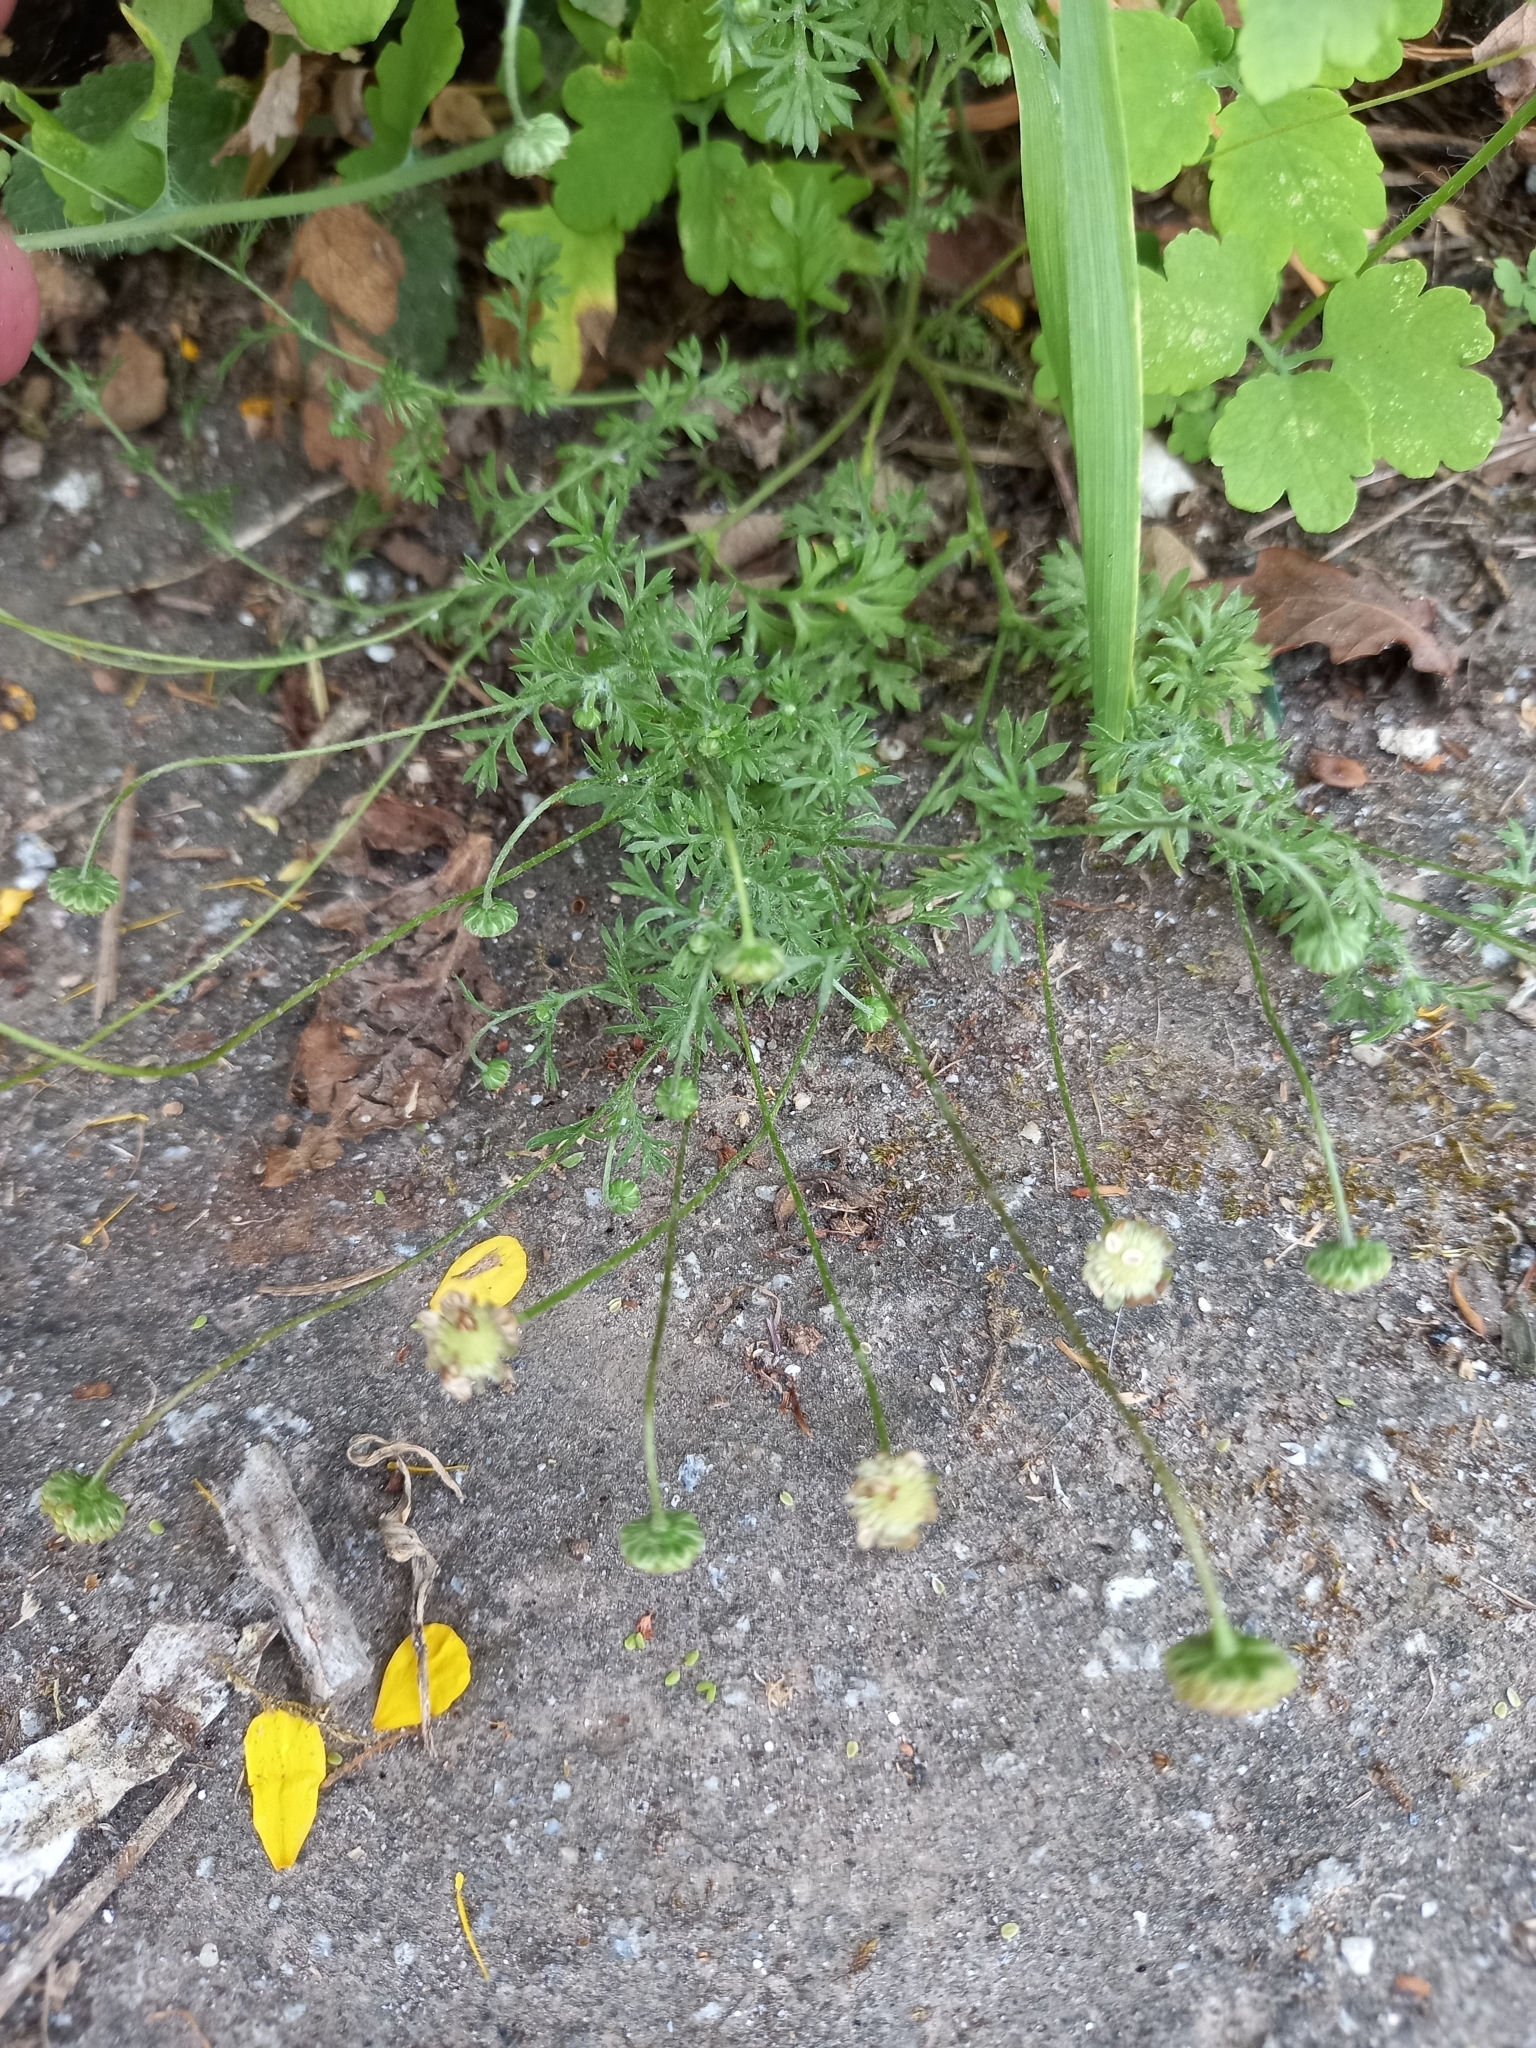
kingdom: Plantae
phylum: Tracheophyta
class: Magnoliopsida
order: Asterales
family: Asteraceae
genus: Cotula
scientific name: Cotula australis
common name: Australian waterbuttons
